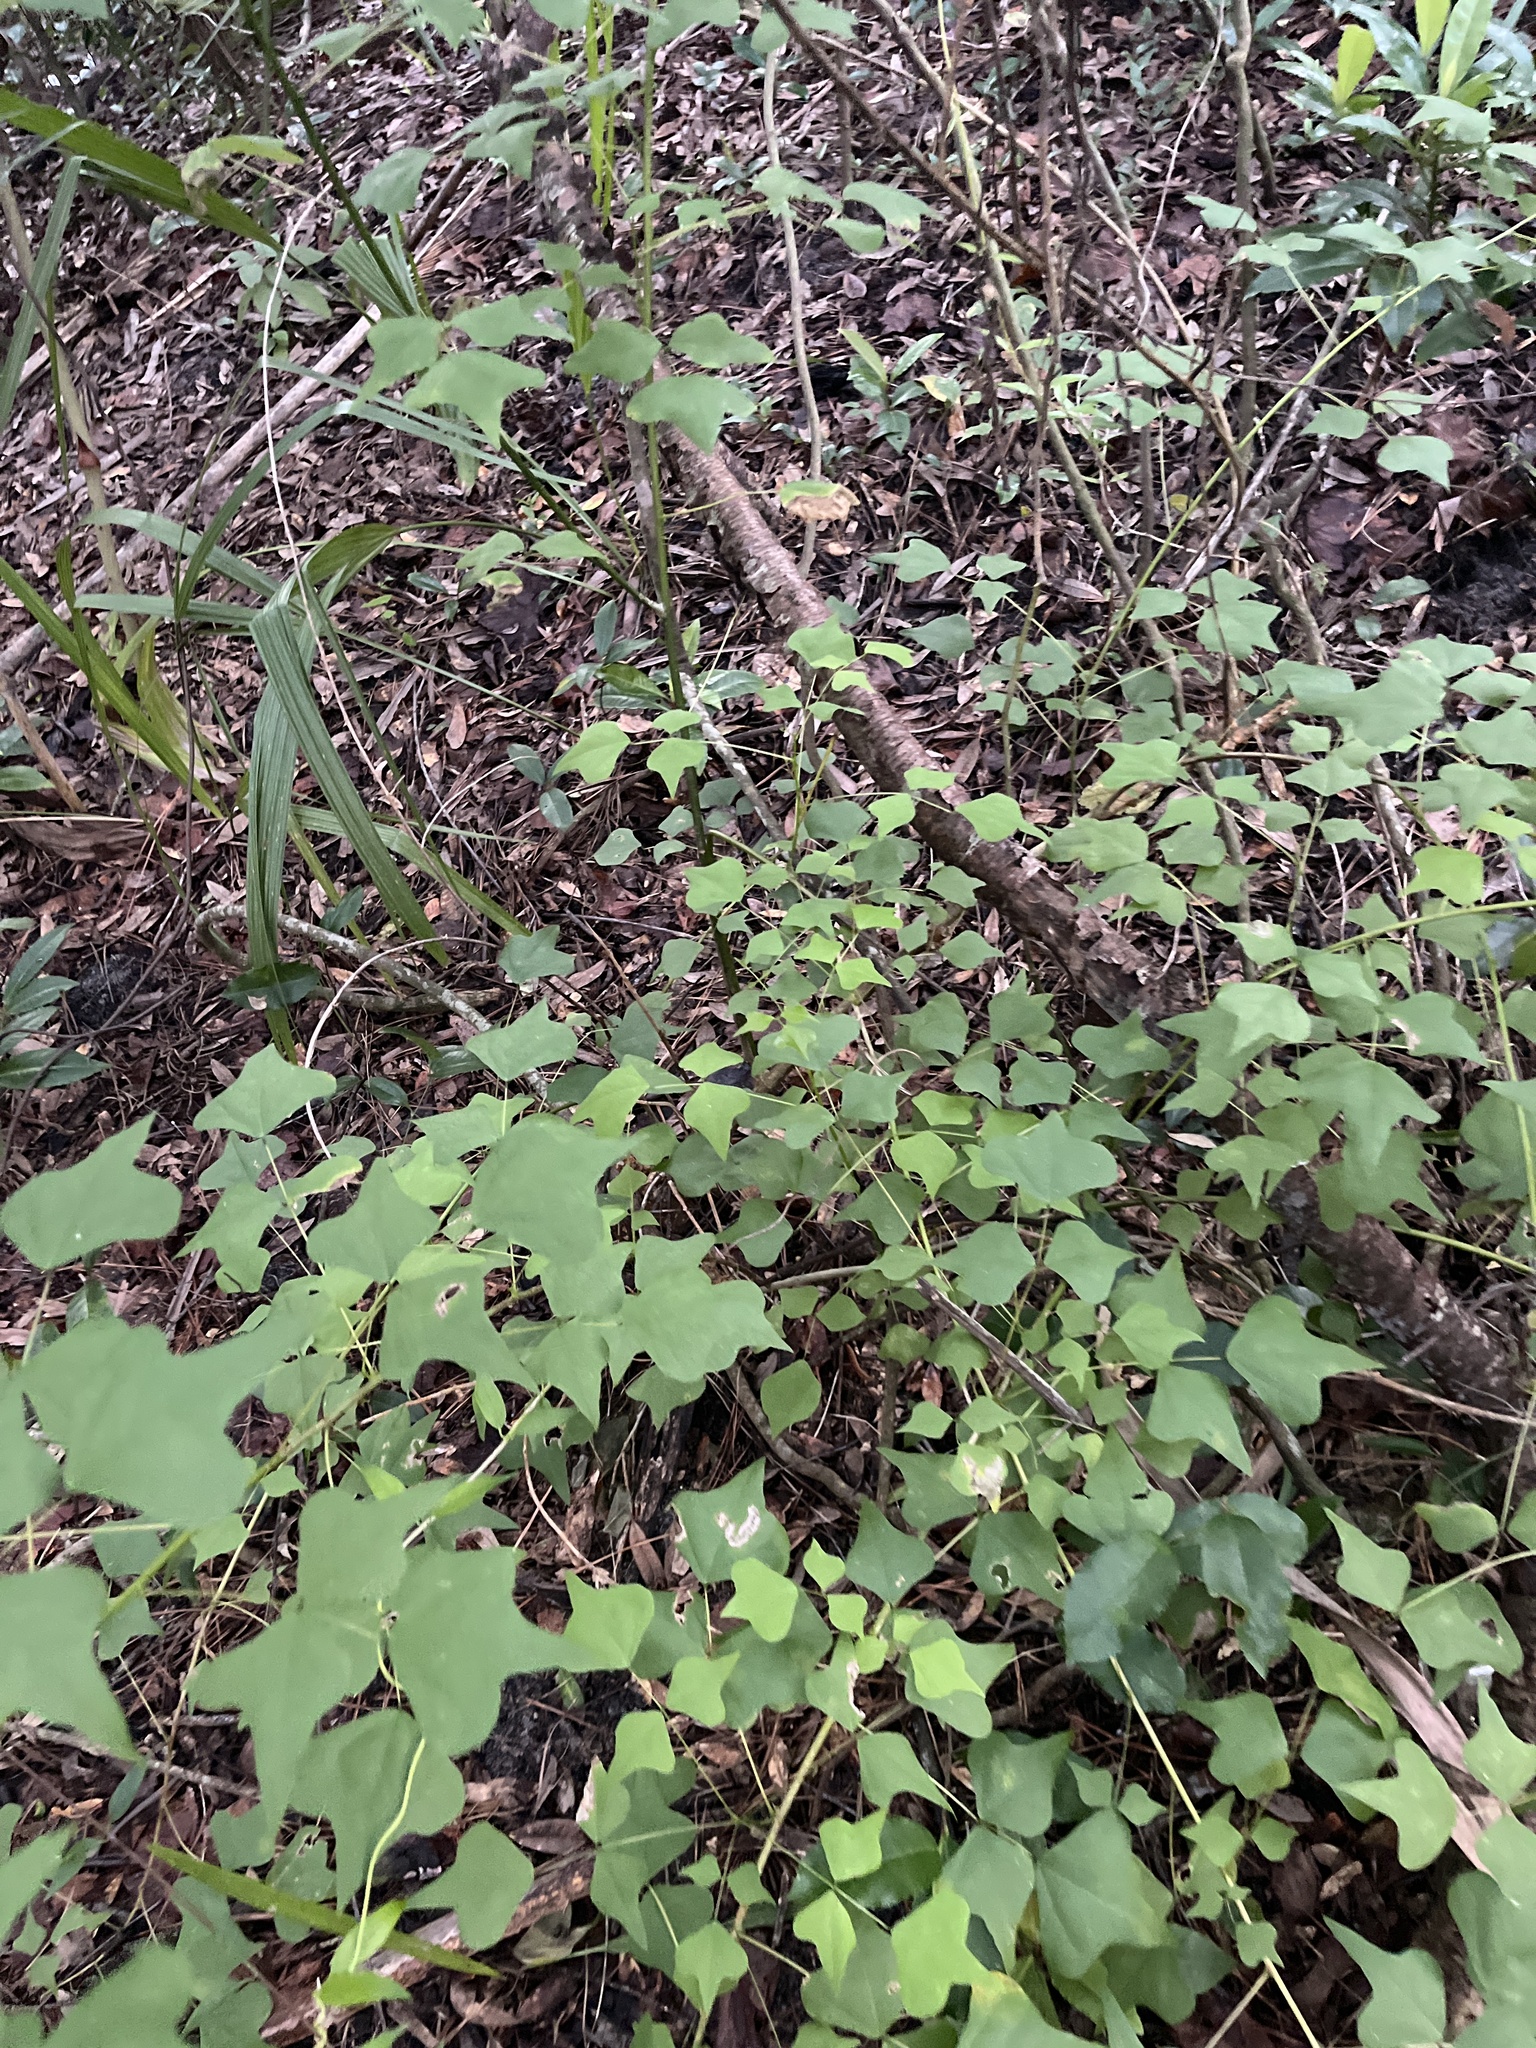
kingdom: Plantae
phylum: Tracheophyta
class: Magnoliopsida
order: Fabales
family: Fabaceae
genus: Erythrina
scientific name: Erythrina herbacea
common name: Coral-bean
